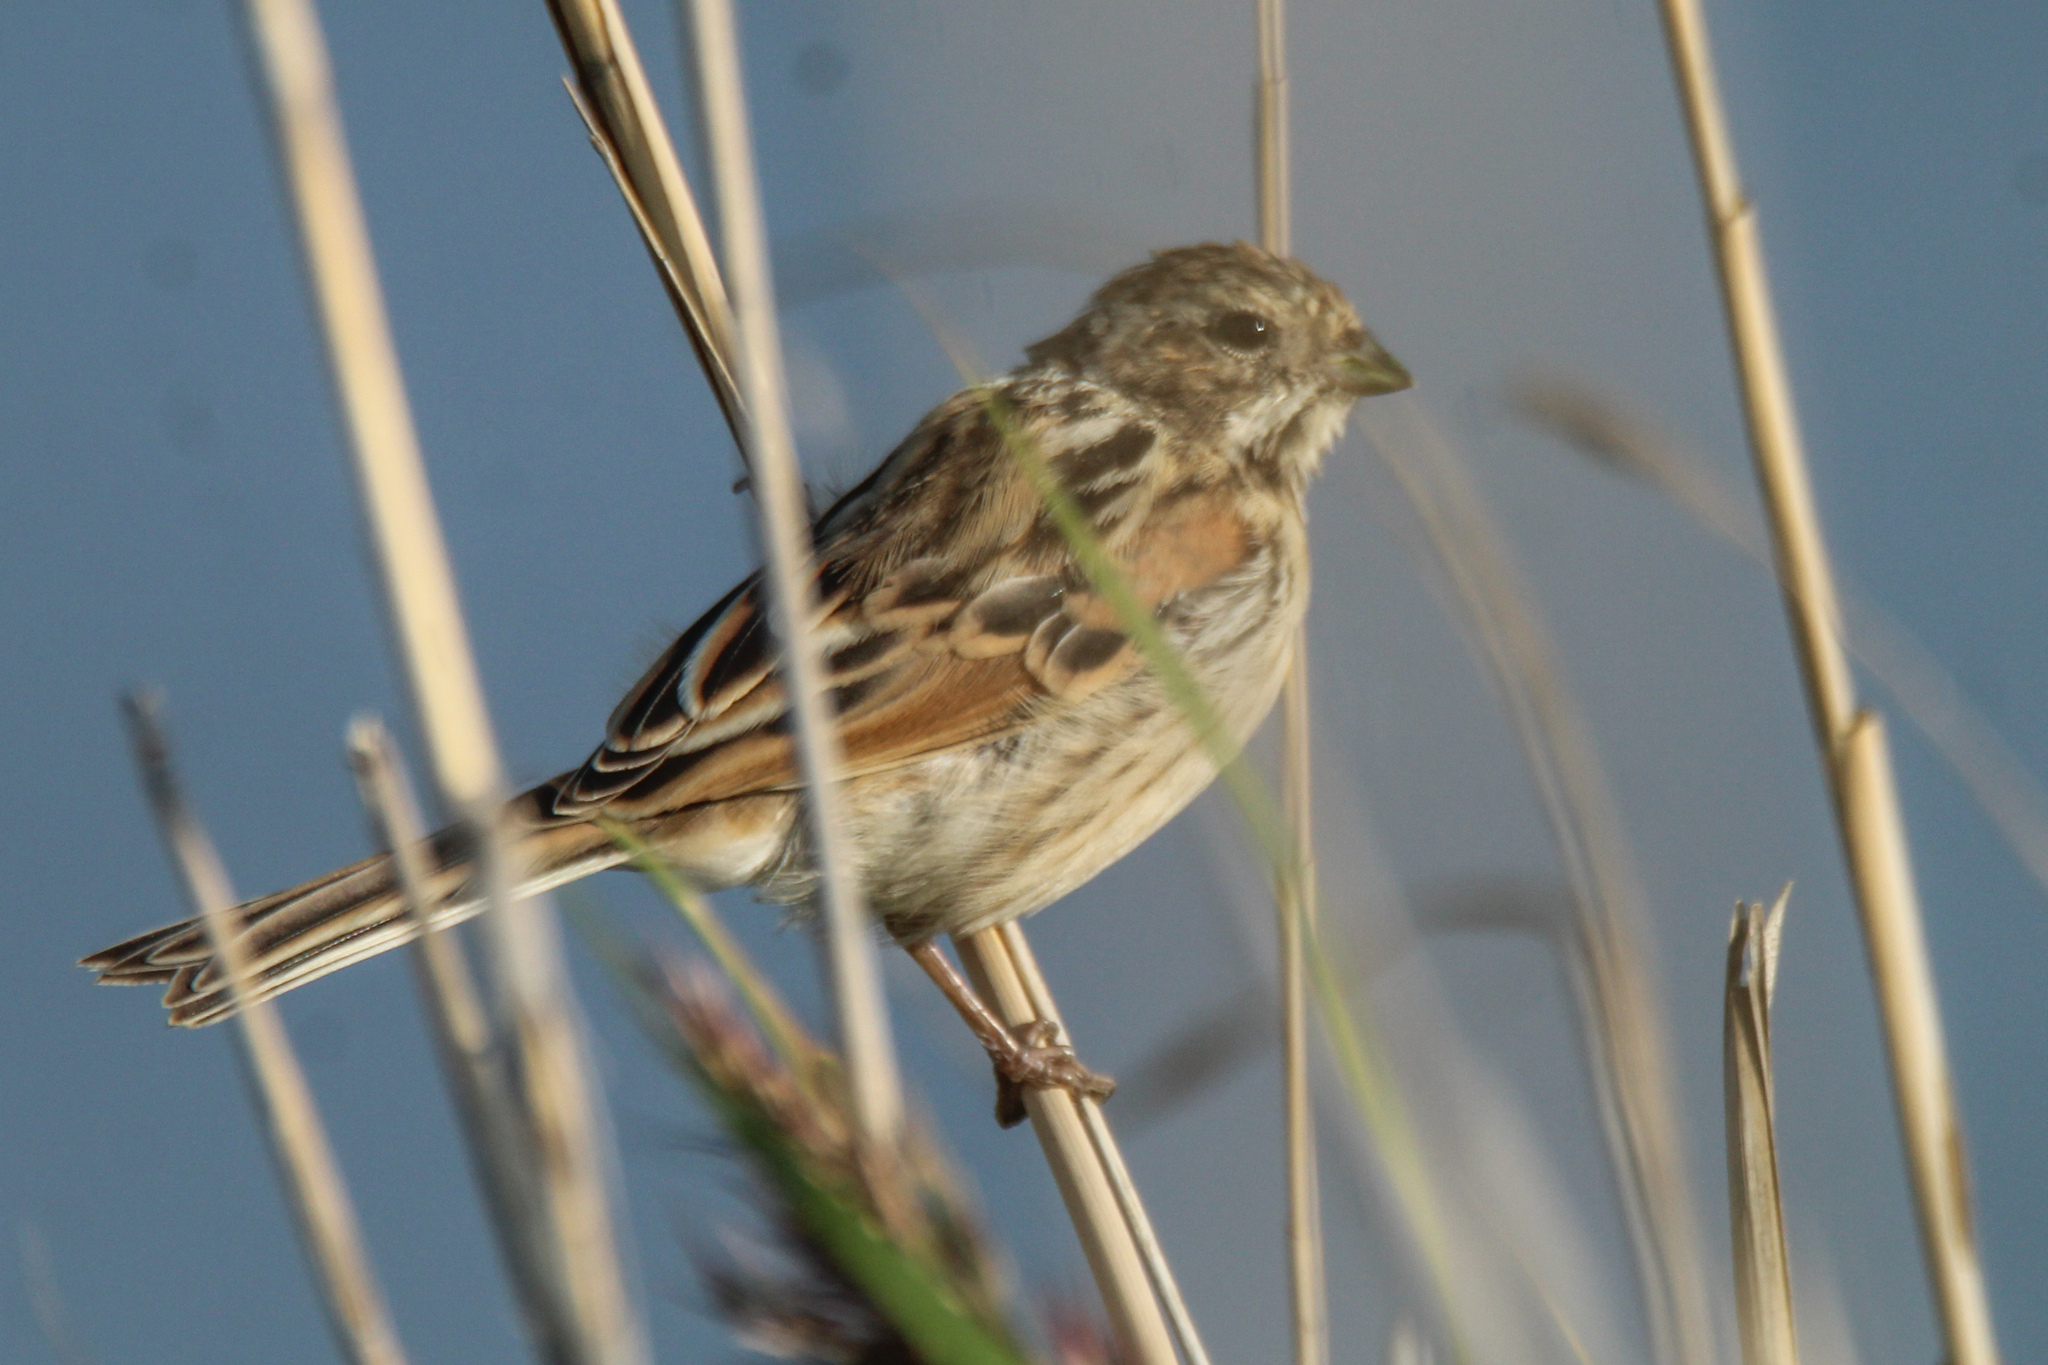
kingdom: Animalia
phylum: Chordata
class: Aves
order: Passeriformes
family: Emberizidae
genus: Emberiza
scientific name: Emberiza schoeniclus
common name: Reed bunting
